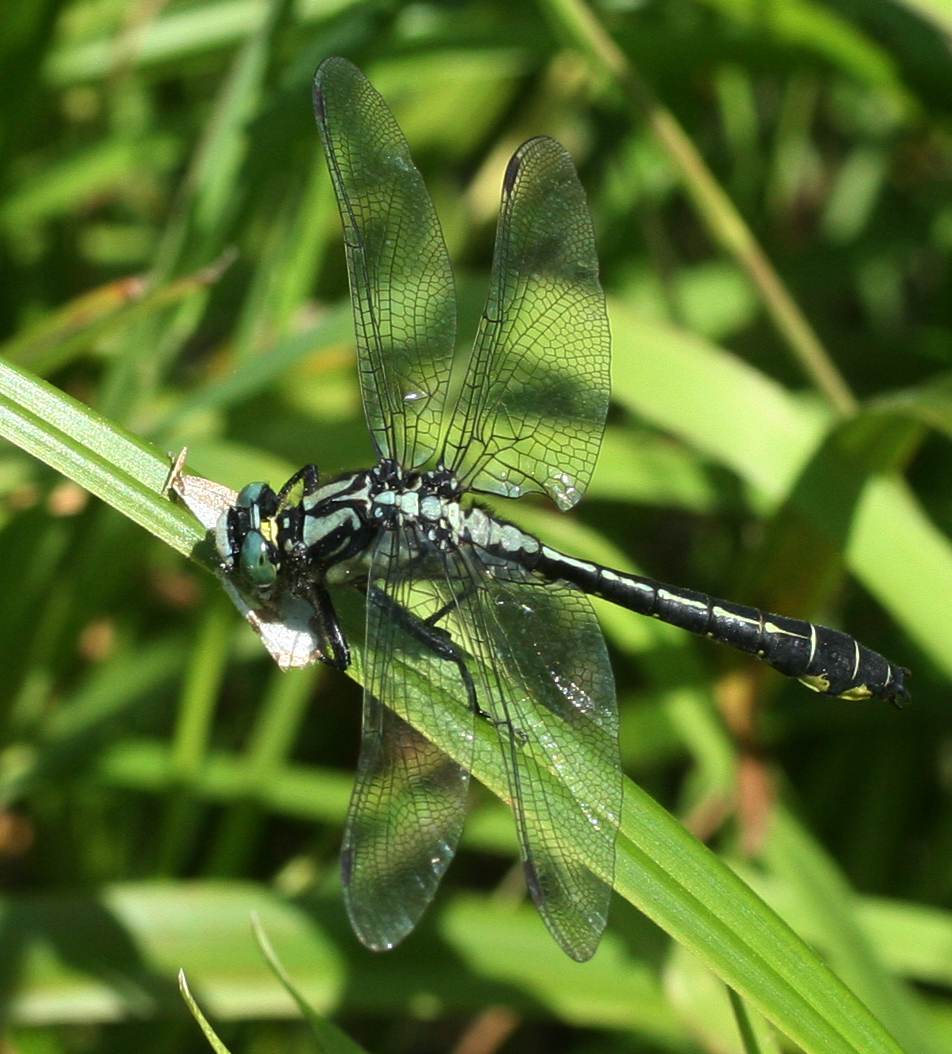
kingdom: Animalia
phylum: Arthropoda
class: Insecta
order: Odonata
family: Gomphidae
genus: Gomphus
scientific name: Gomphus vulgatissimus
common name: Club-tailed dragonfly
